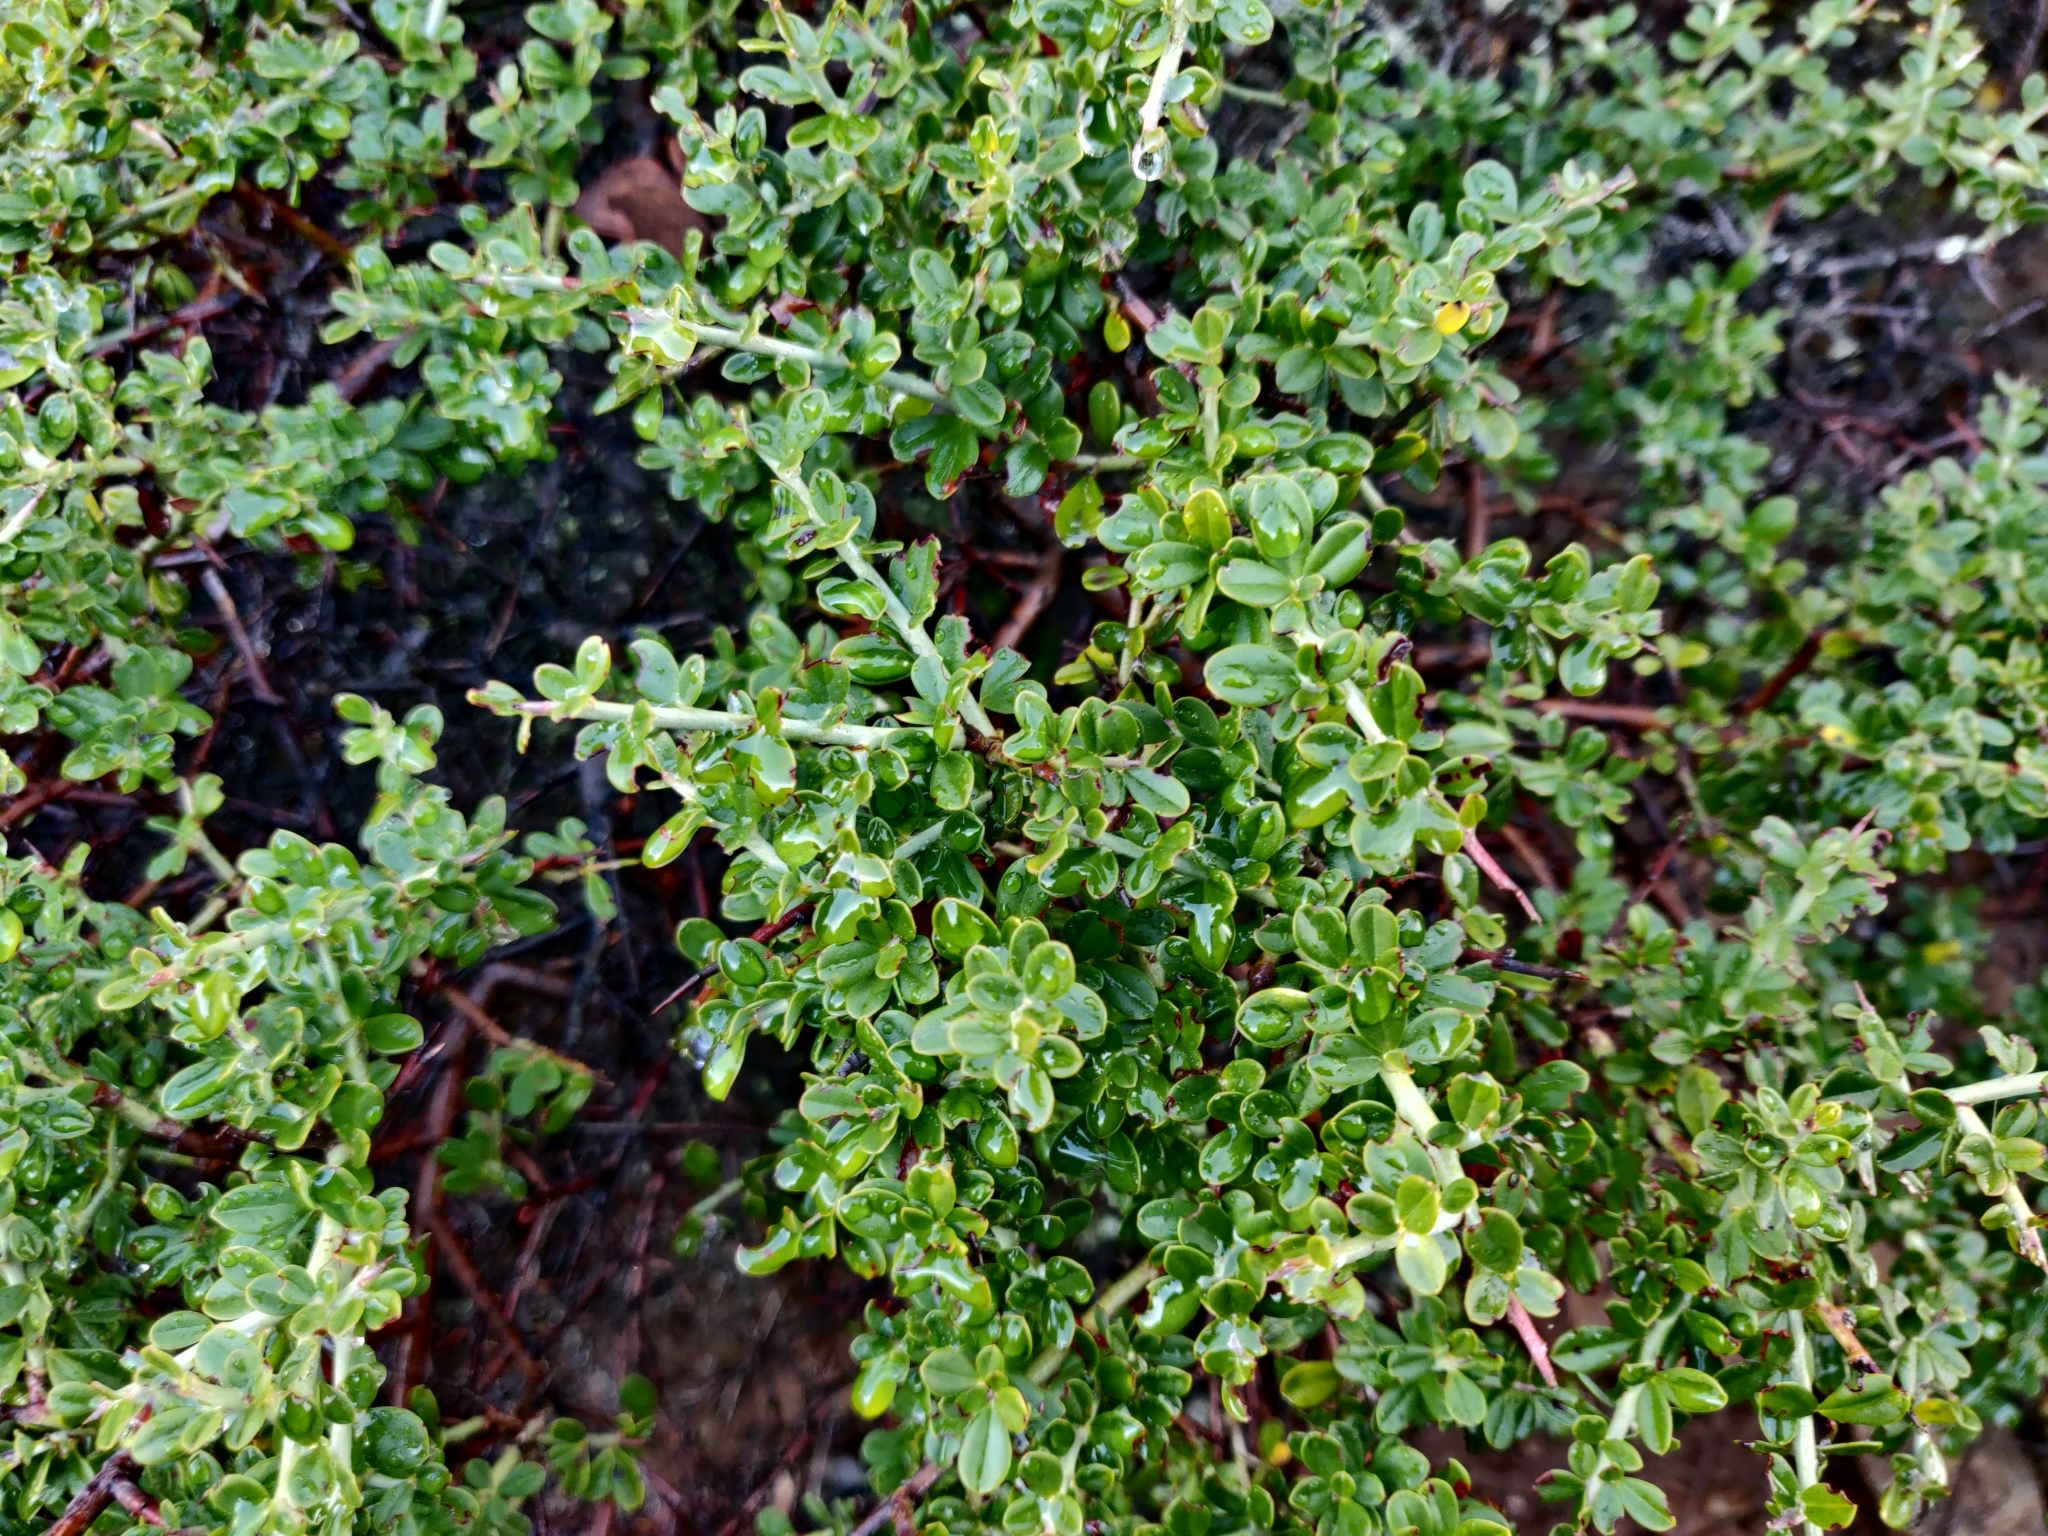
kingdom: Plantae
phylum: Tracheophyta
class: Magnoliopsida
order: Rosales
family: Rhamnaceae
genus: Ceanothus
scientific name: Ceanothus cuneatus
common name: Cuneate ceanothus
